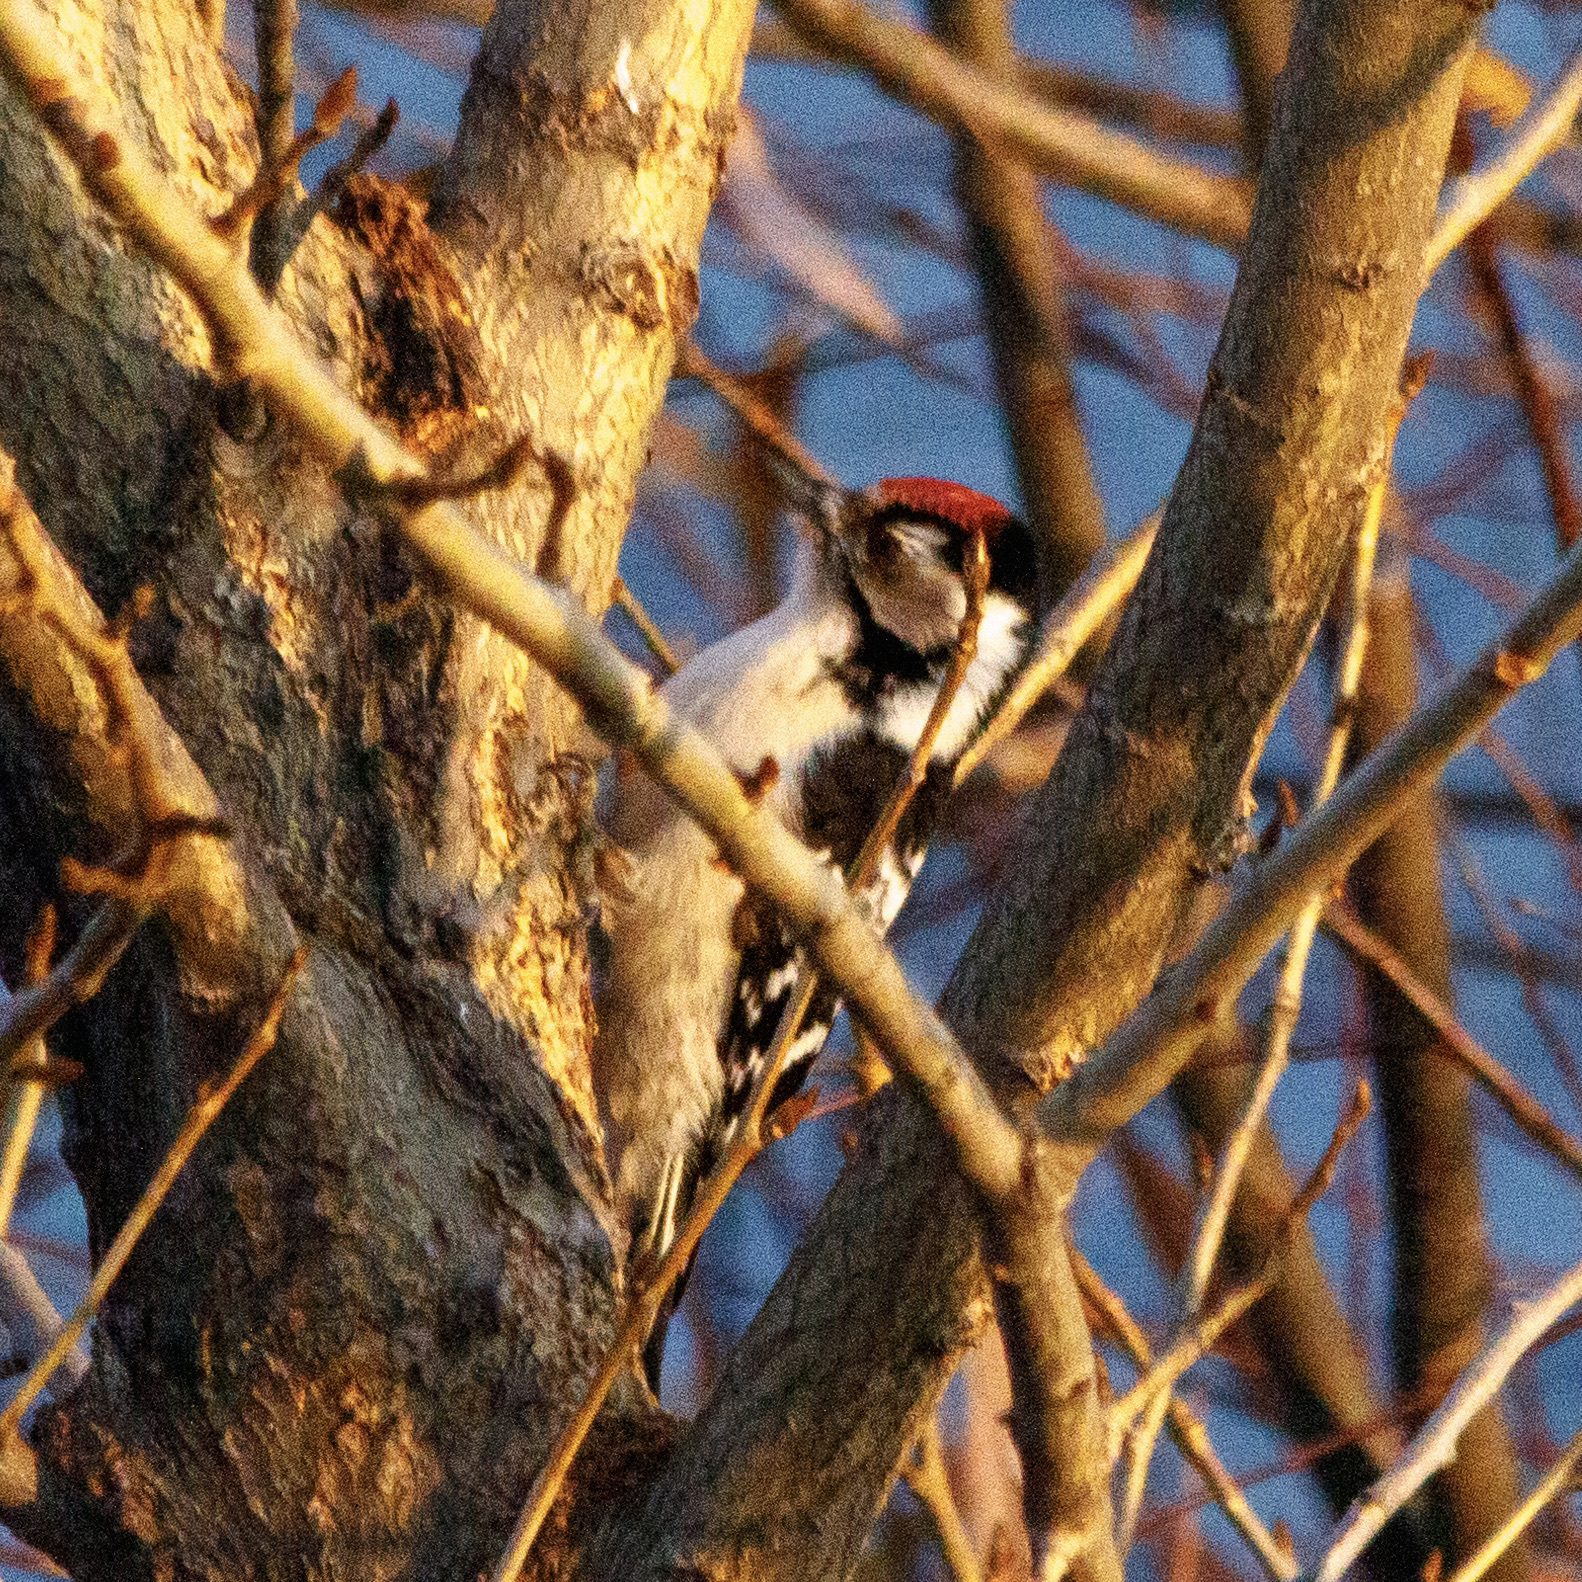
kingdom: Animalia
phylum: Chordata
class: Aves
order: Piciformes
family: Picidae
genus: Dryobates
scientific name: Dryobates minor
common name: Lesser spotted woodpecker
